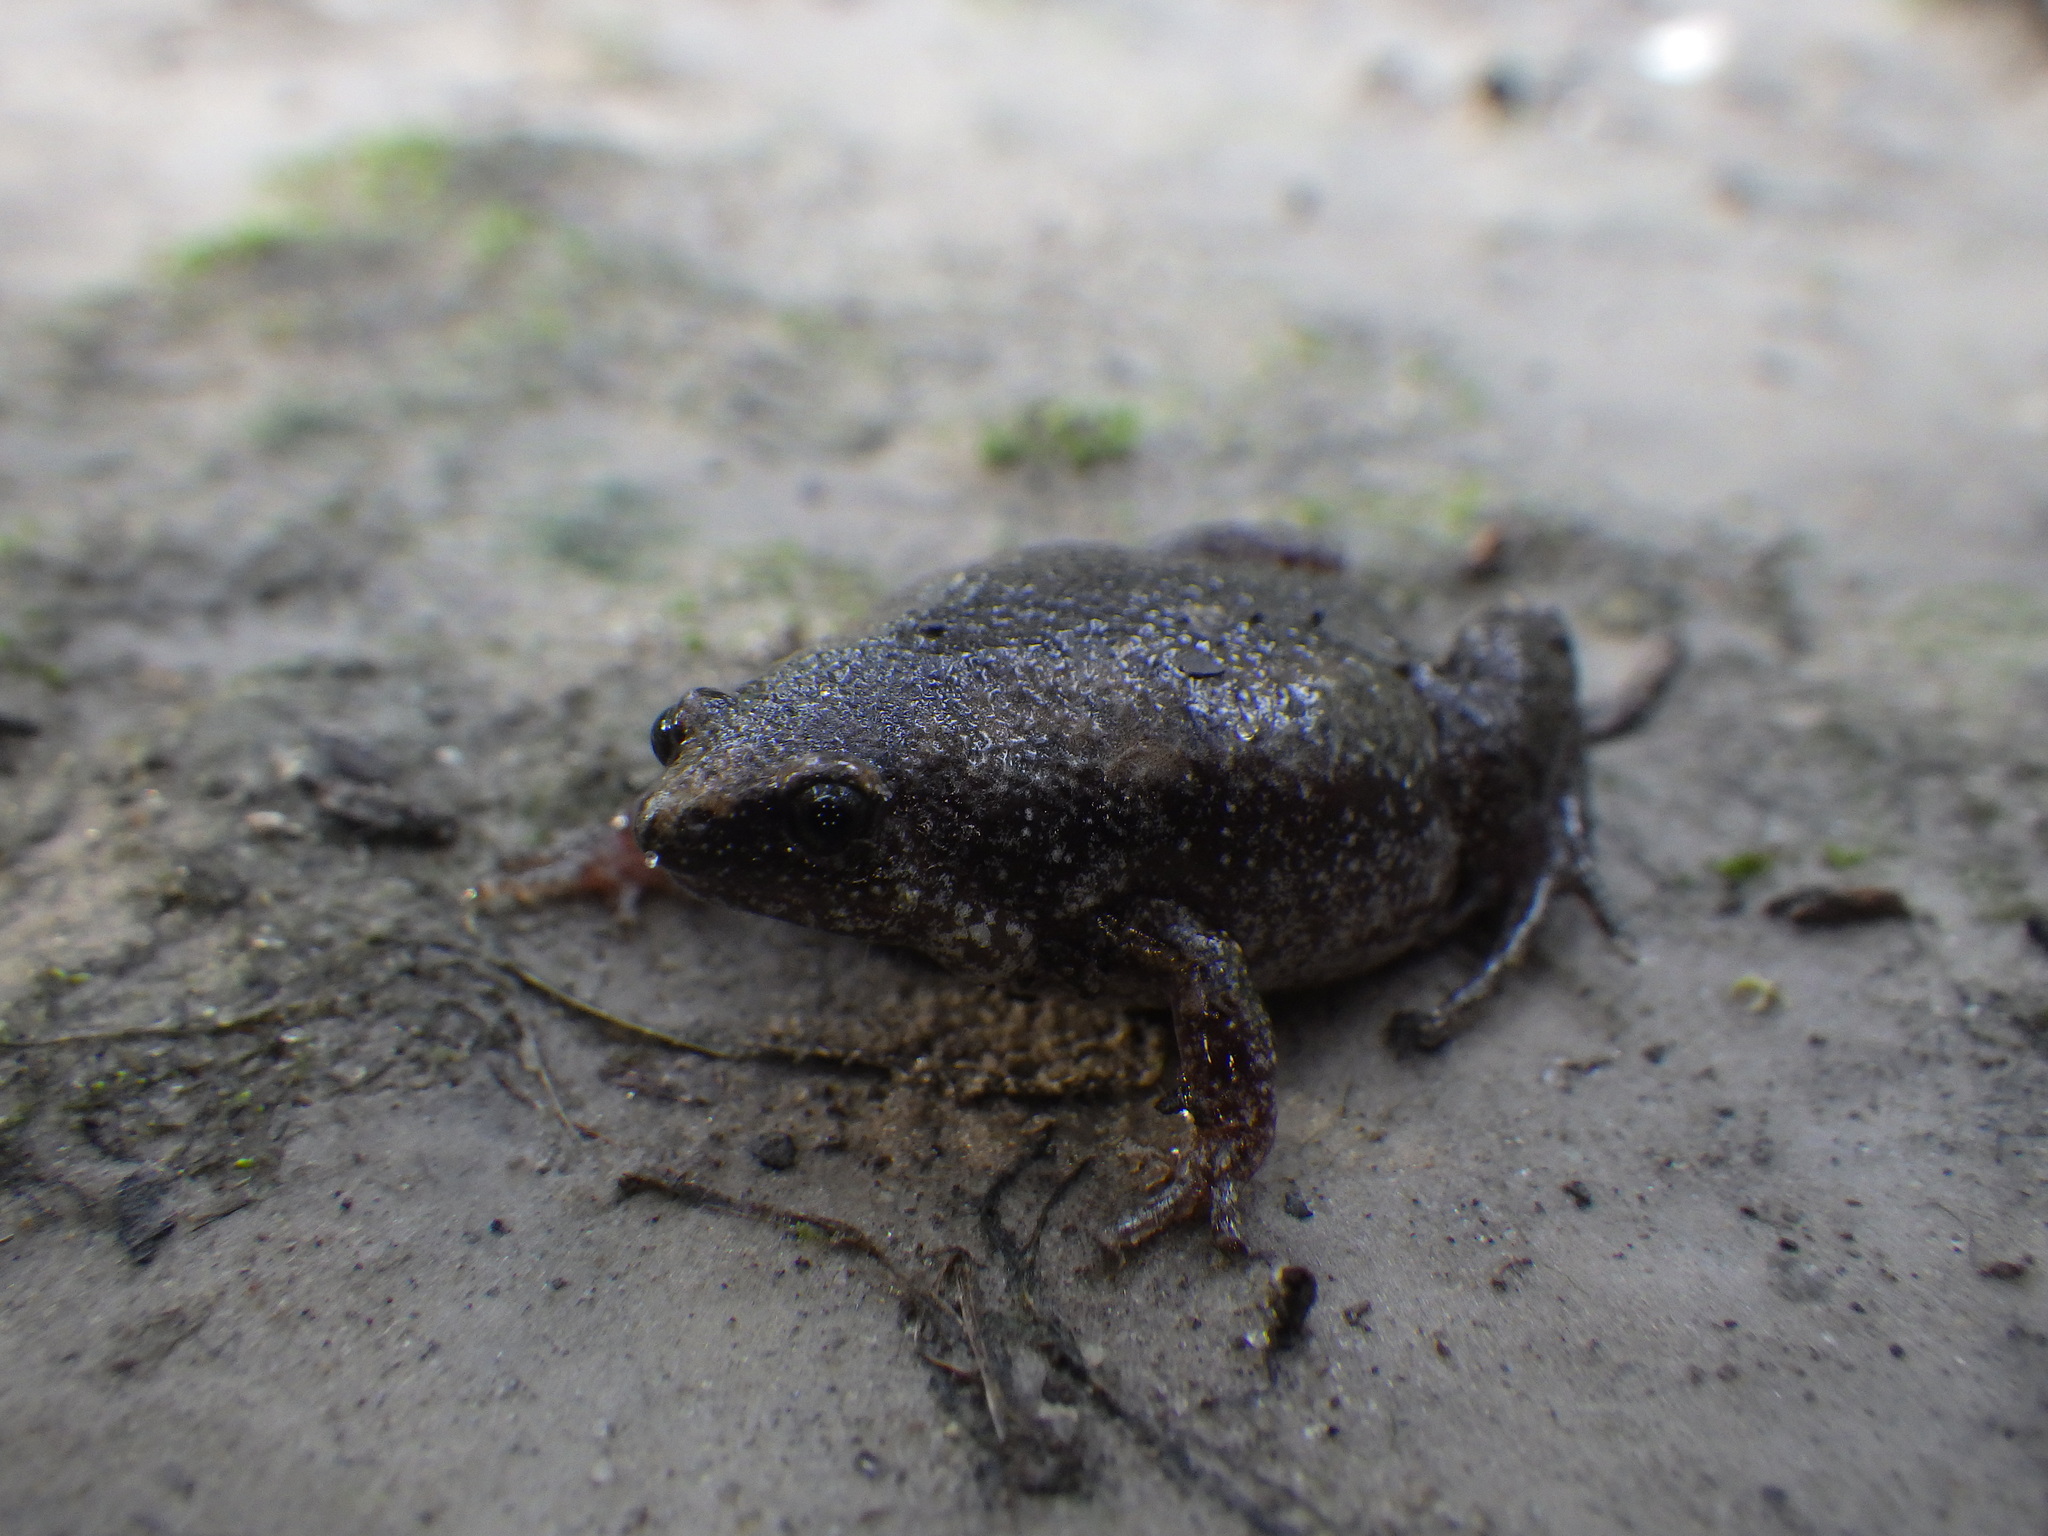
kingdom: Animalia
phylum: Chordata
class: Amphibia
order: Anura
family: Microhylidae
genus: Gastrophryne
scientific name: Gastrophryne carolinensis
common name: Eastern narrowmouth toad
